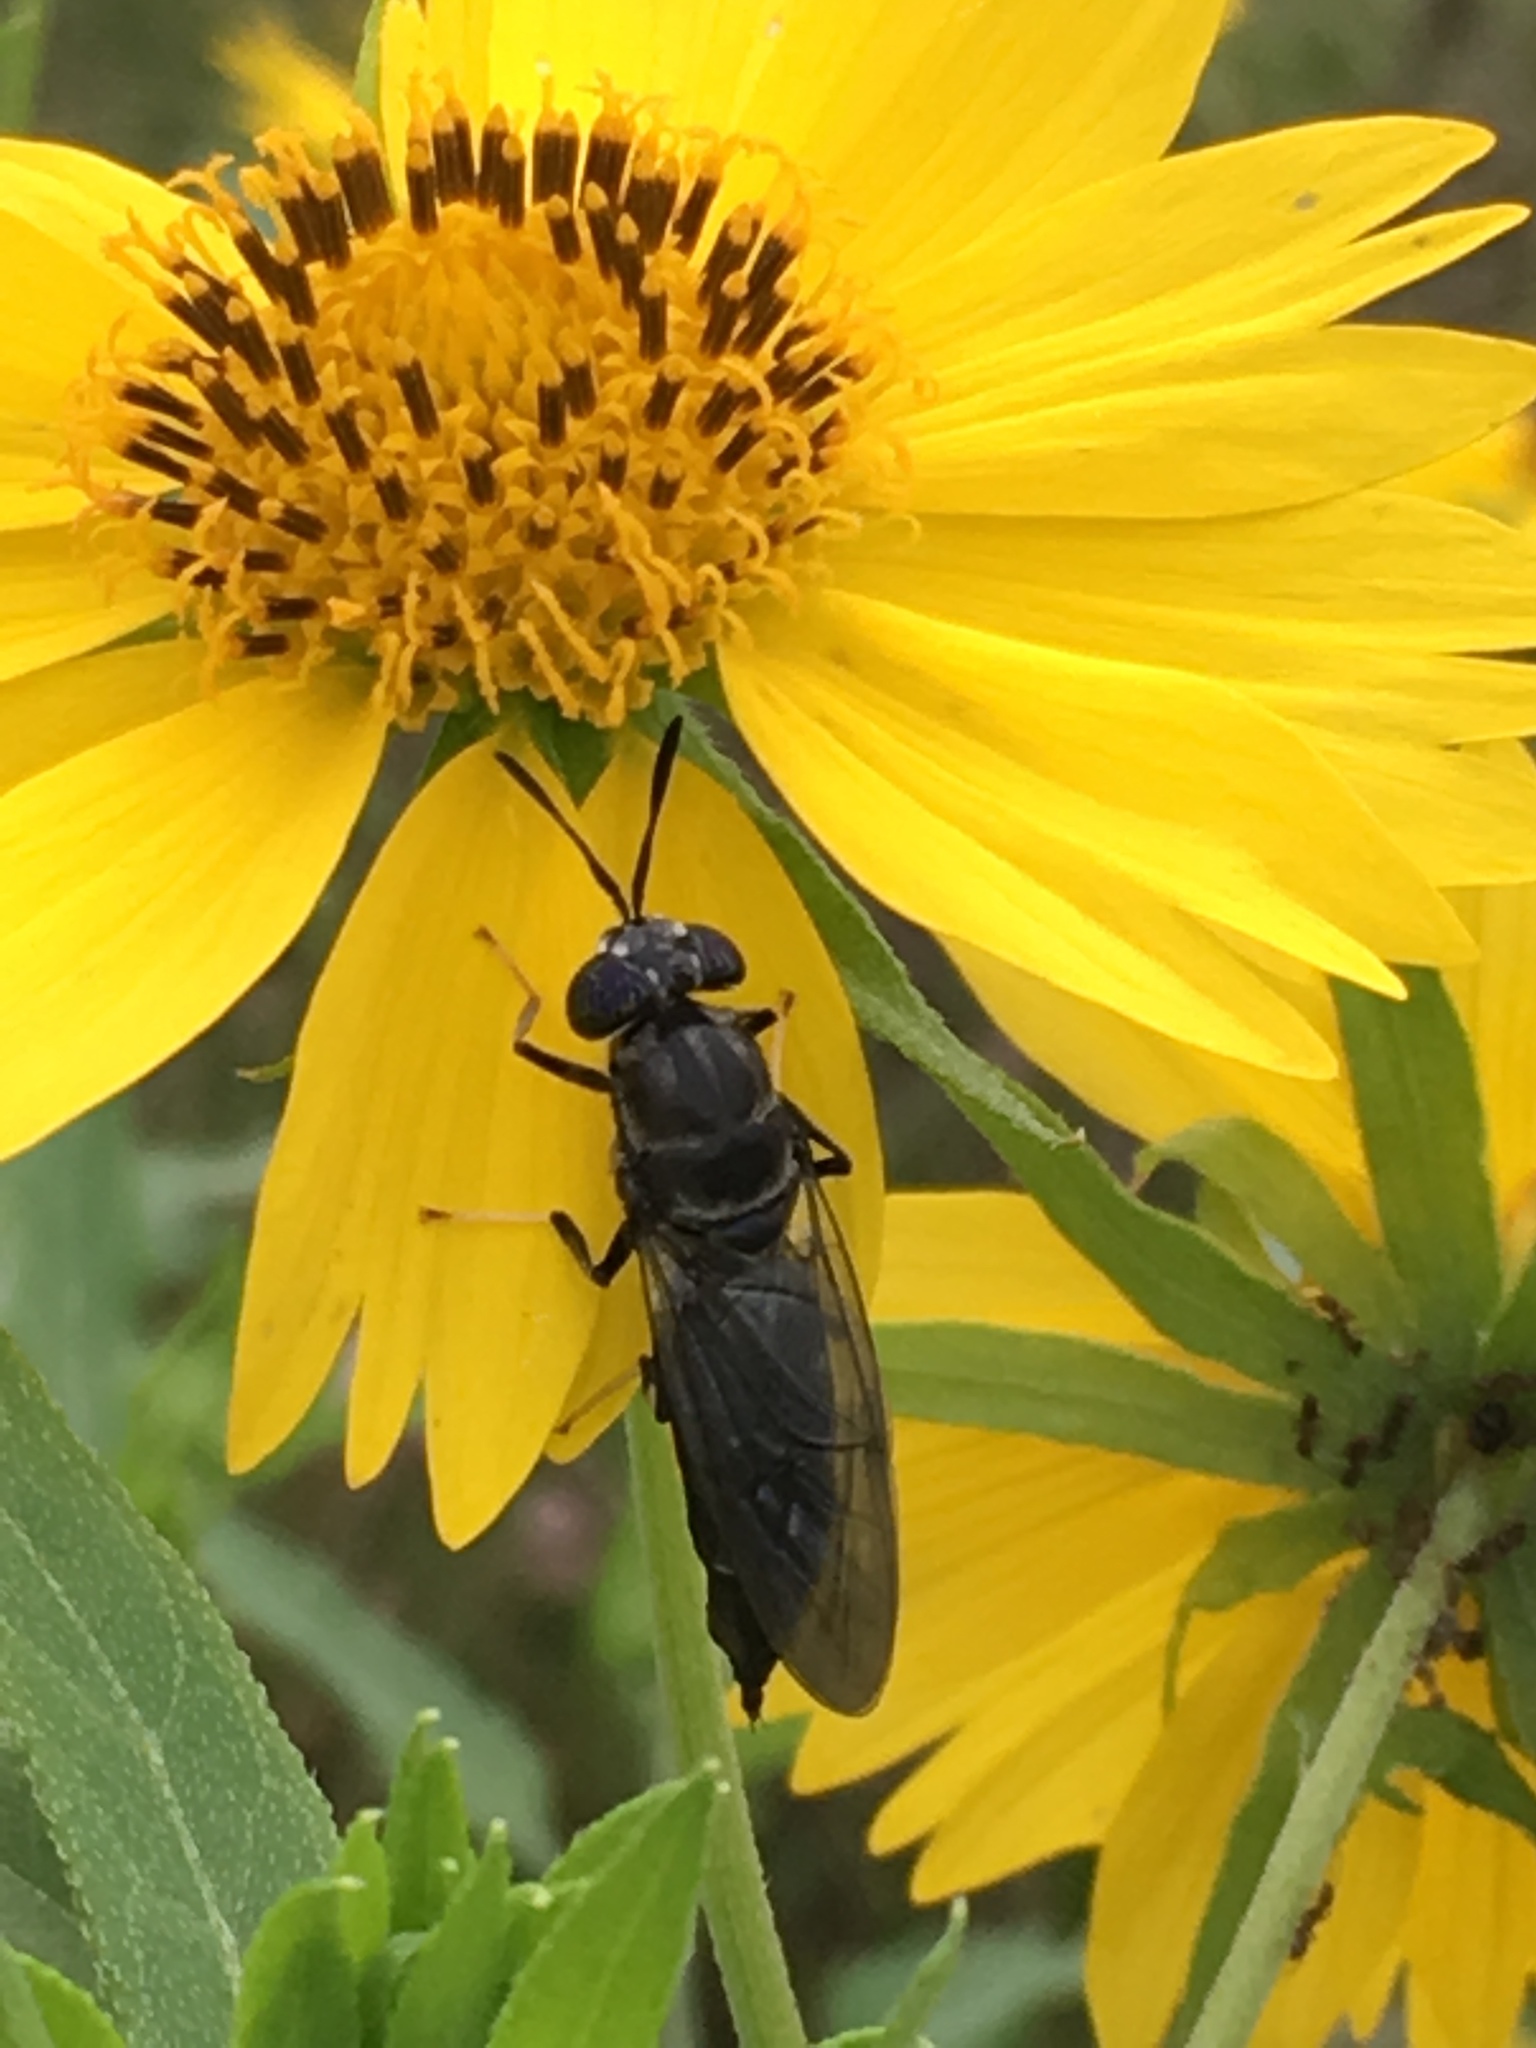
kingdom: Animalia
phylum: Arthropoda
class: Insecta
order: Diptera
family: Stratiomyidae
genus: Hermetia
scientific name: Hermetia illucens
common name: Black soldier fly
